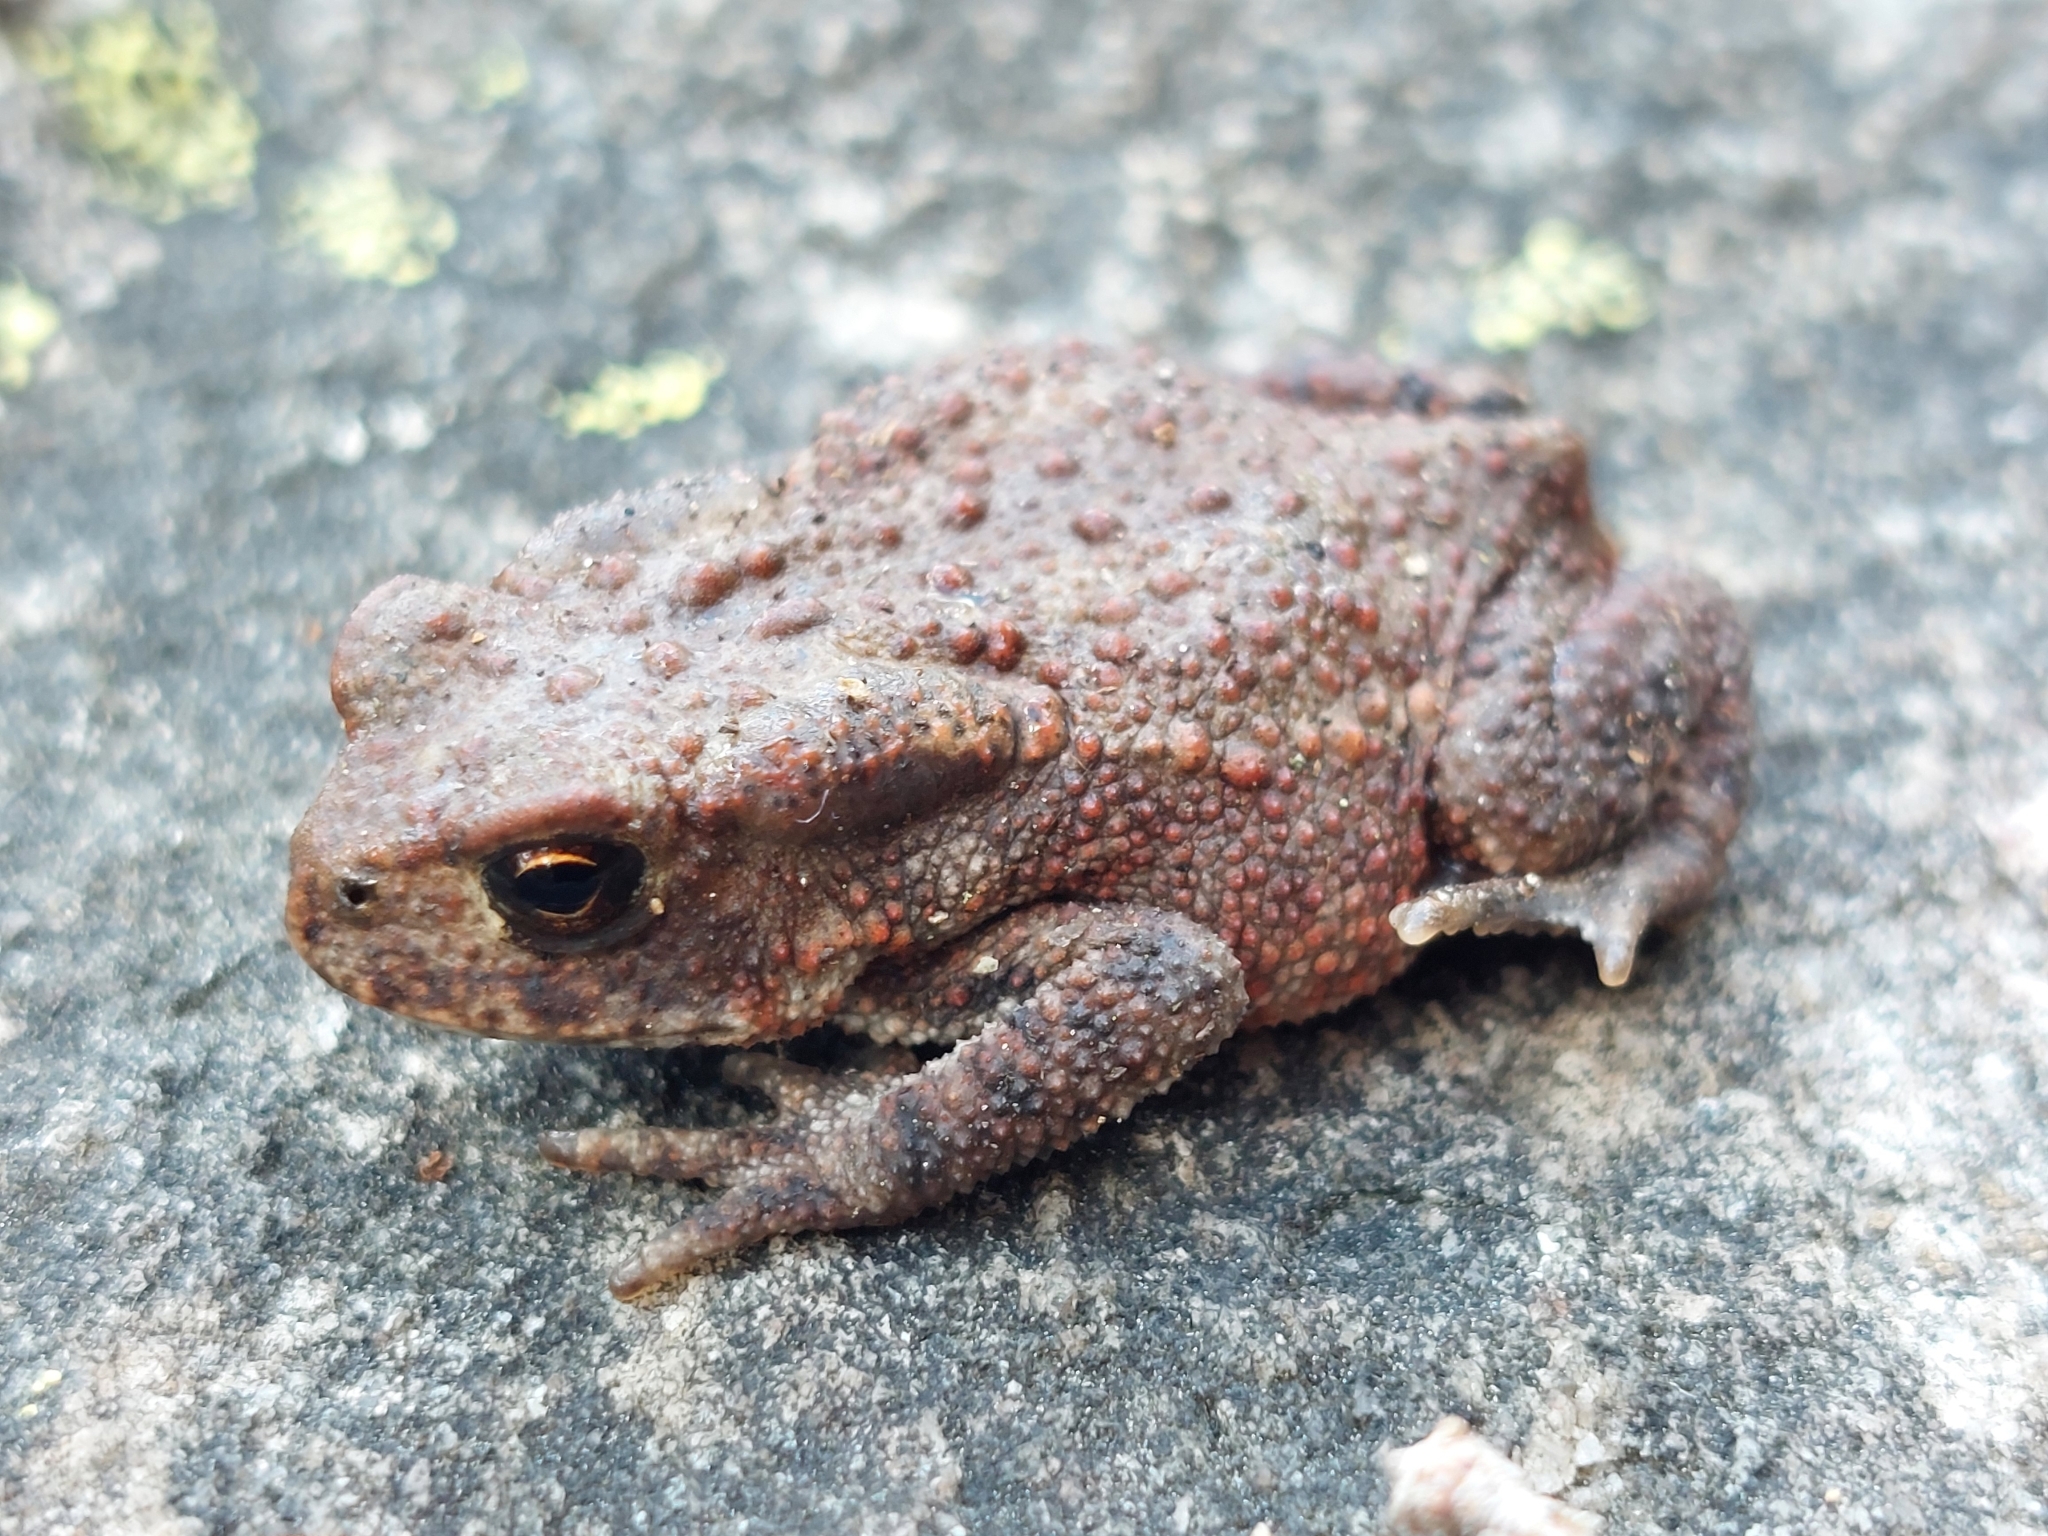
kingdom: Animalia
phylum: Chordata
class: Amphibia
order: Anura
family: Bufonidae
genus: Bufo
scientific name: Bufo bufo
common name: Common toad
